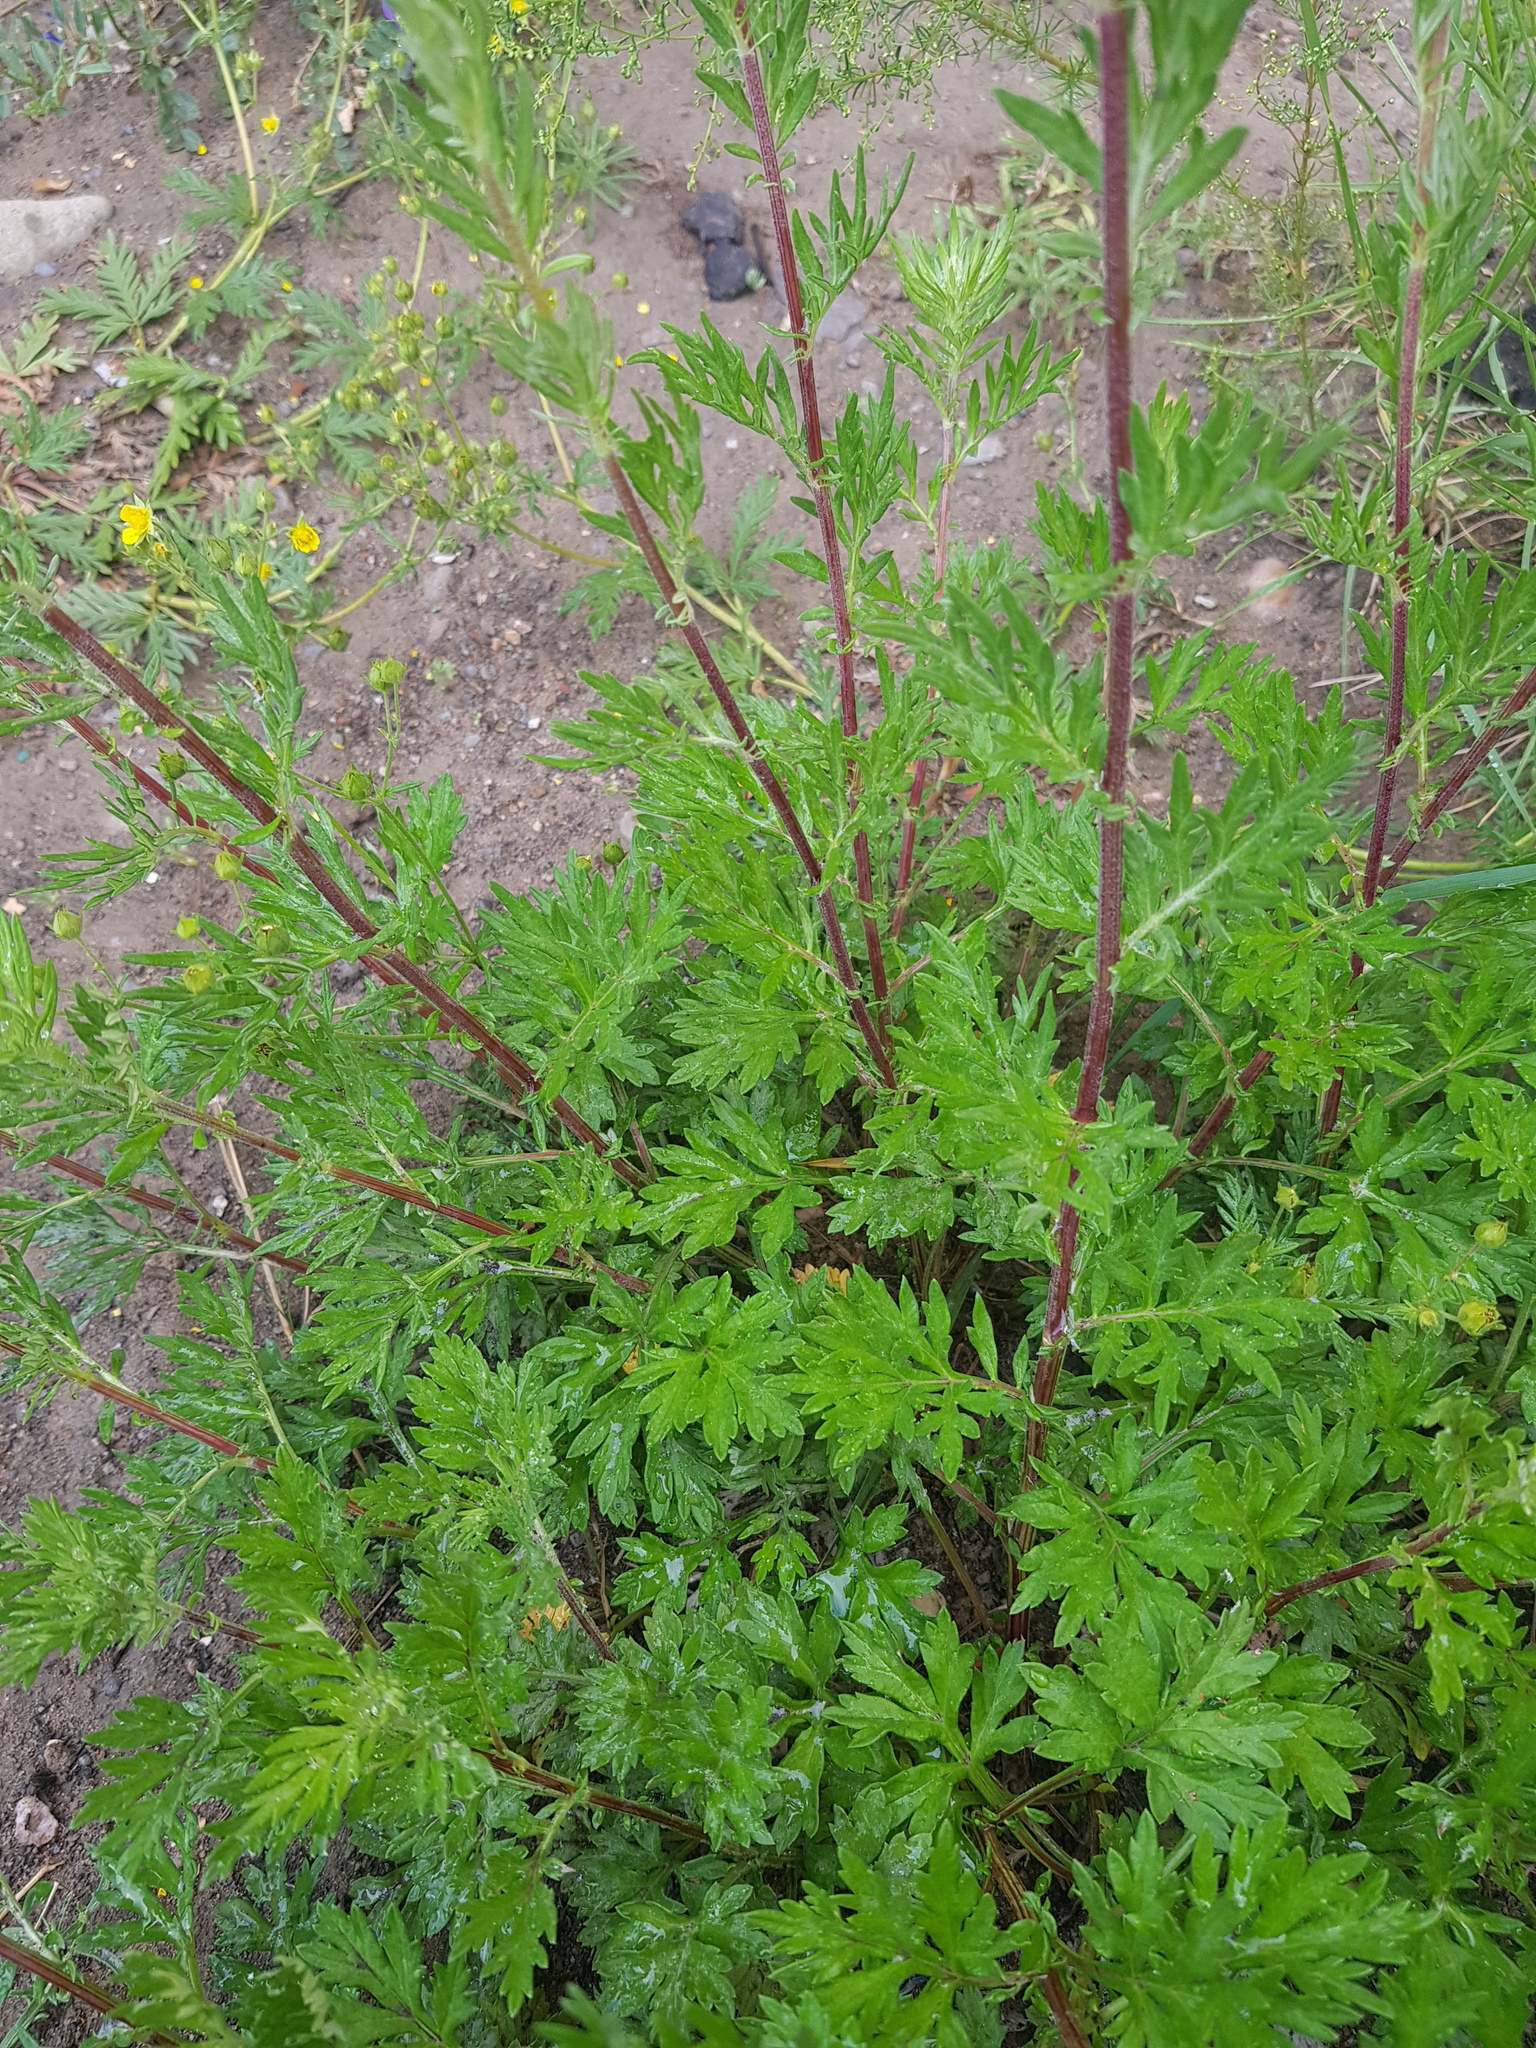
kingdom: Plantae
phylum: Tracheophyta
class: Magnoliopsida
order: Asterales
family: Asteraceae
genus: Artemisia
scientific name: Artemisia vulgaris
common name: Mugwort
